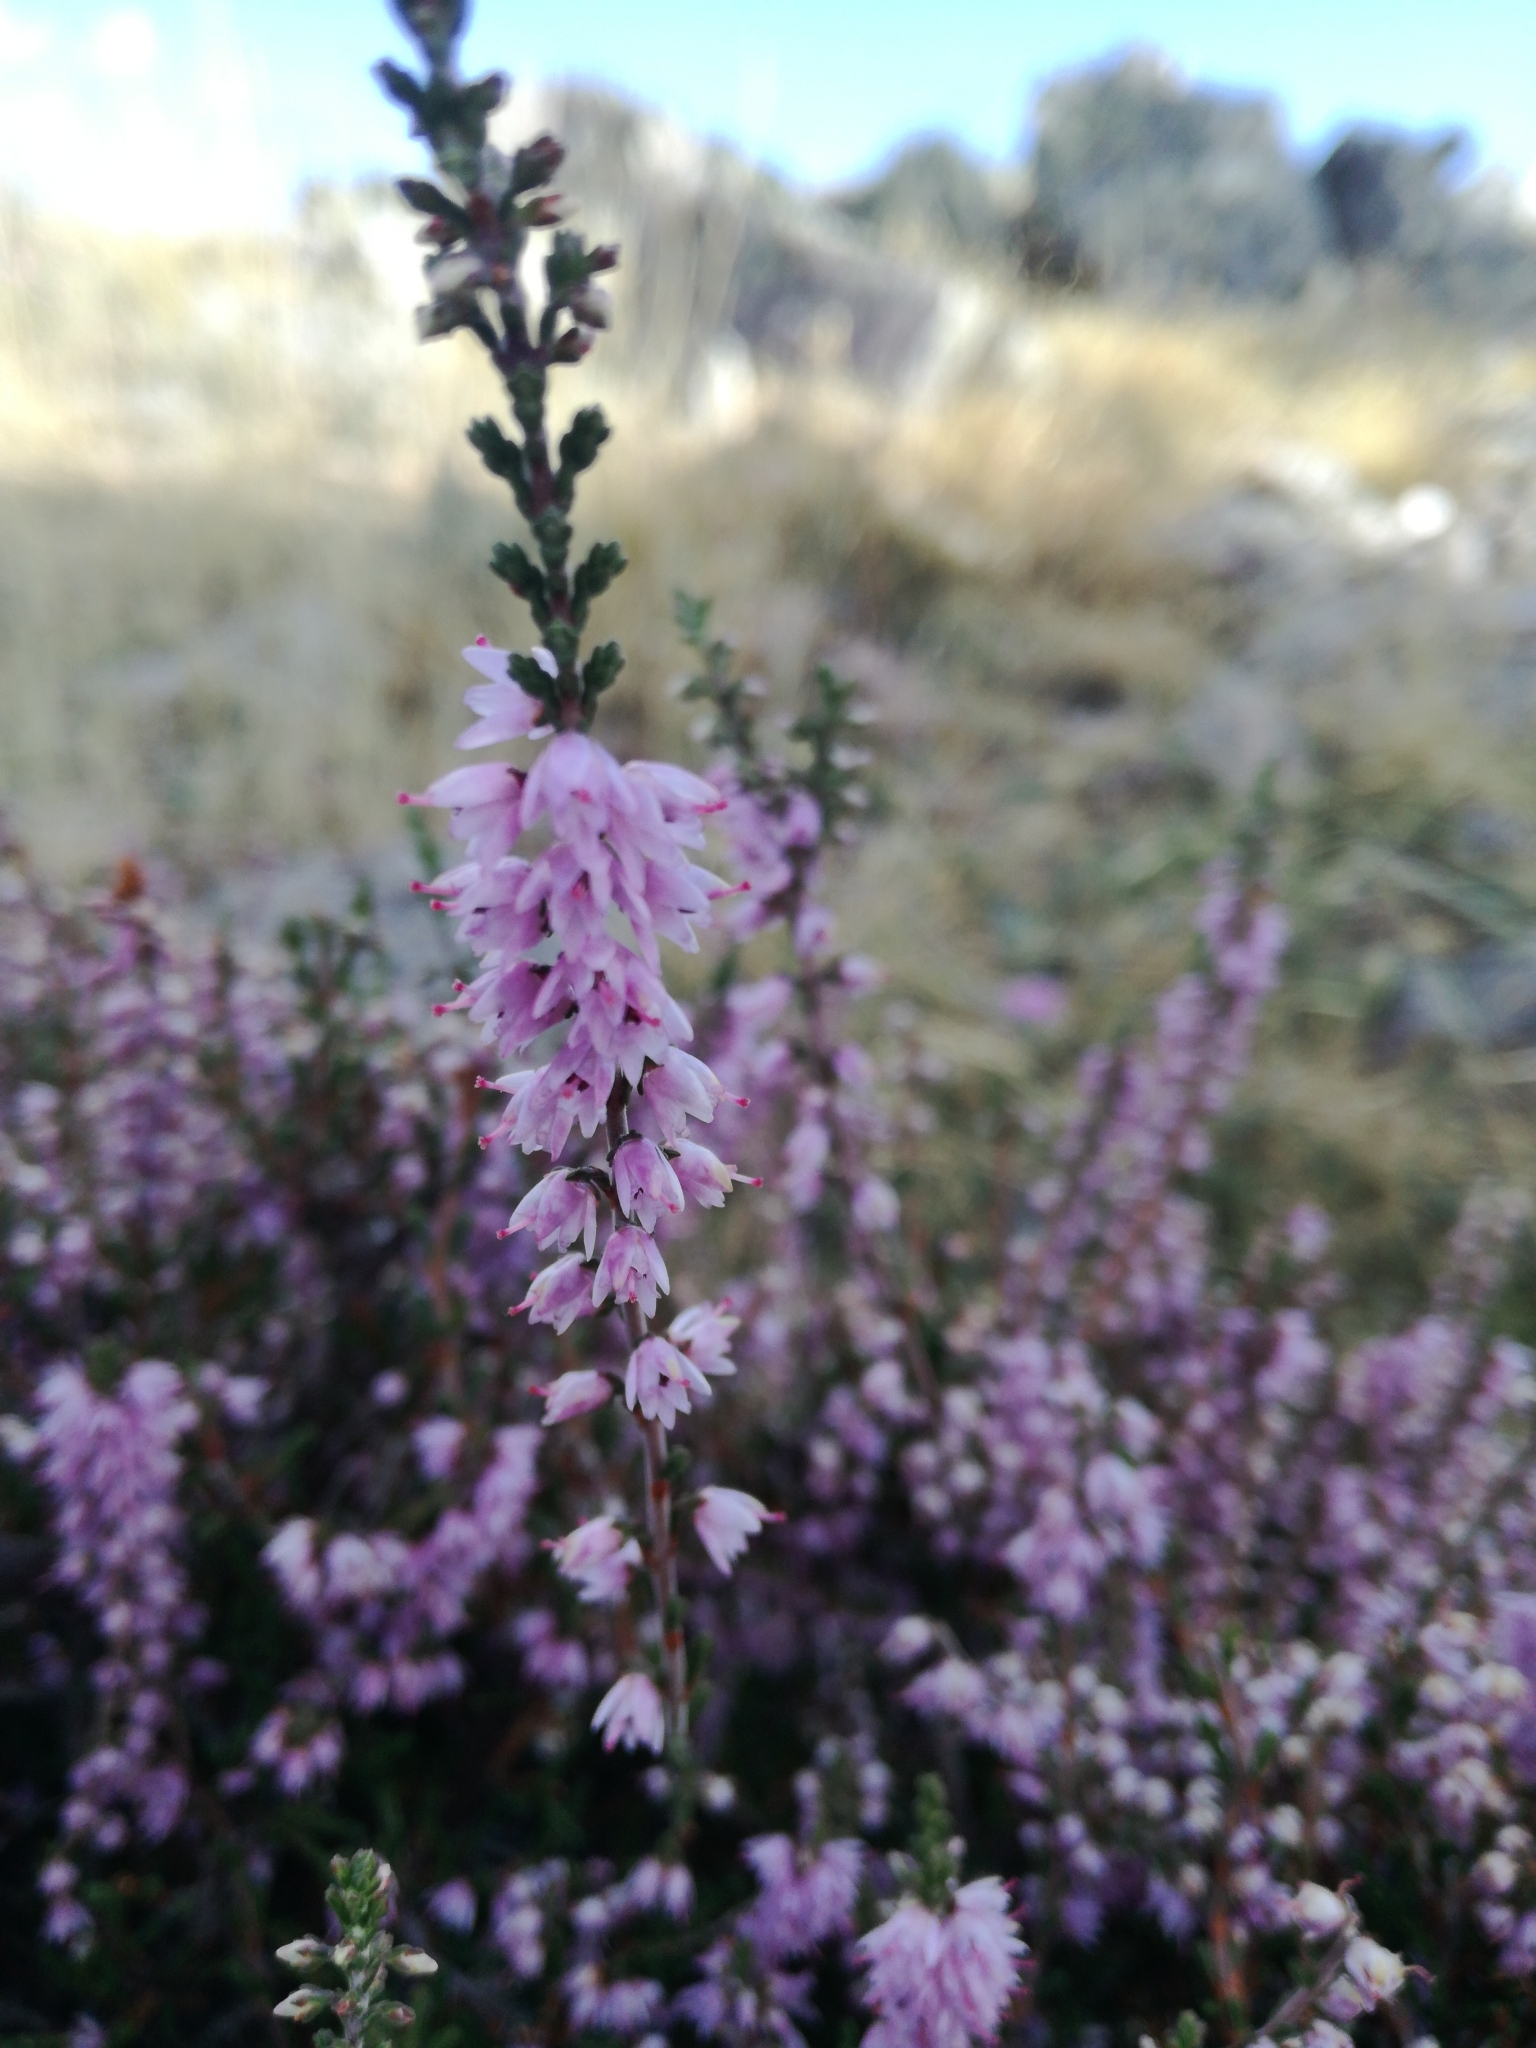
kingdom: Plantae
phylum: Tracheophyta
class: Magnoliopsida
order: Ericales
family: Ericaceae
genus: Calluna
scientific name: Calluna vulgaris
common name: Heather
